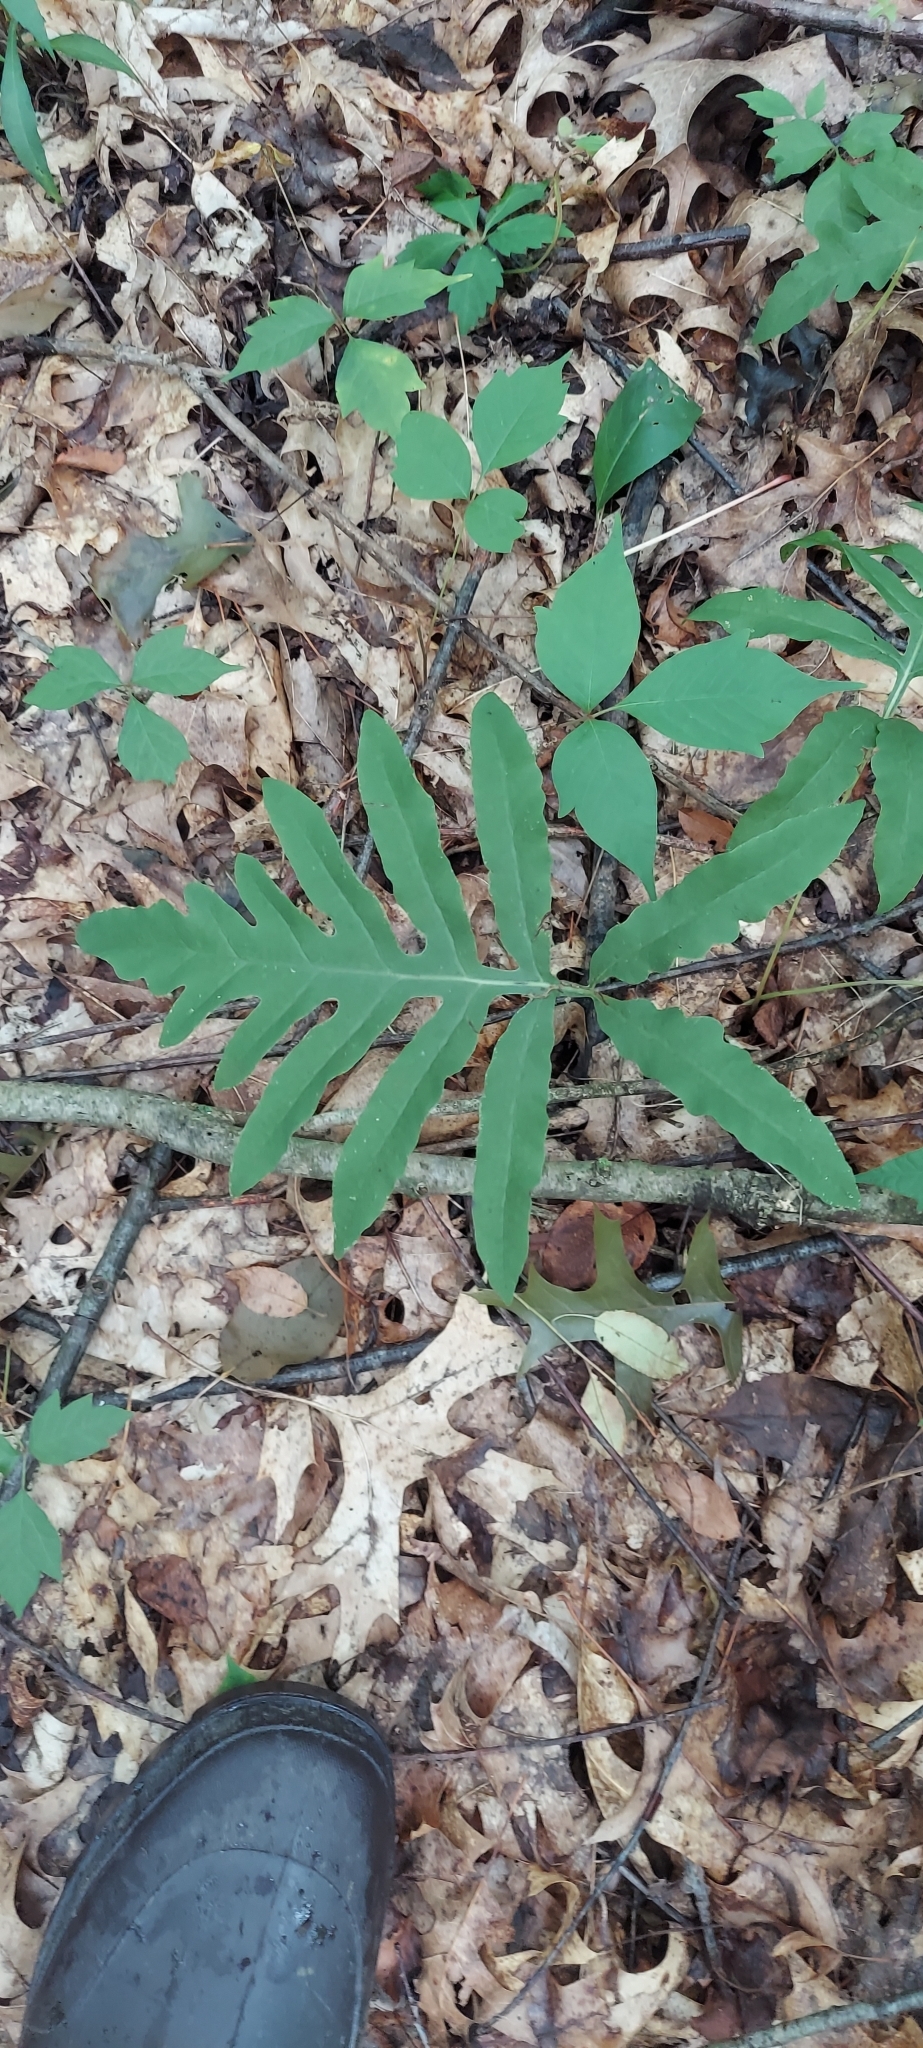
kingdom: Plantae
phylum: Tracheophyta
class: Polypodiopsida
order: Polypodiales
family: Onocleaceae
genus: Onoclea
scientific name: Onoclea sensibilis
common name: Sensitive fern
